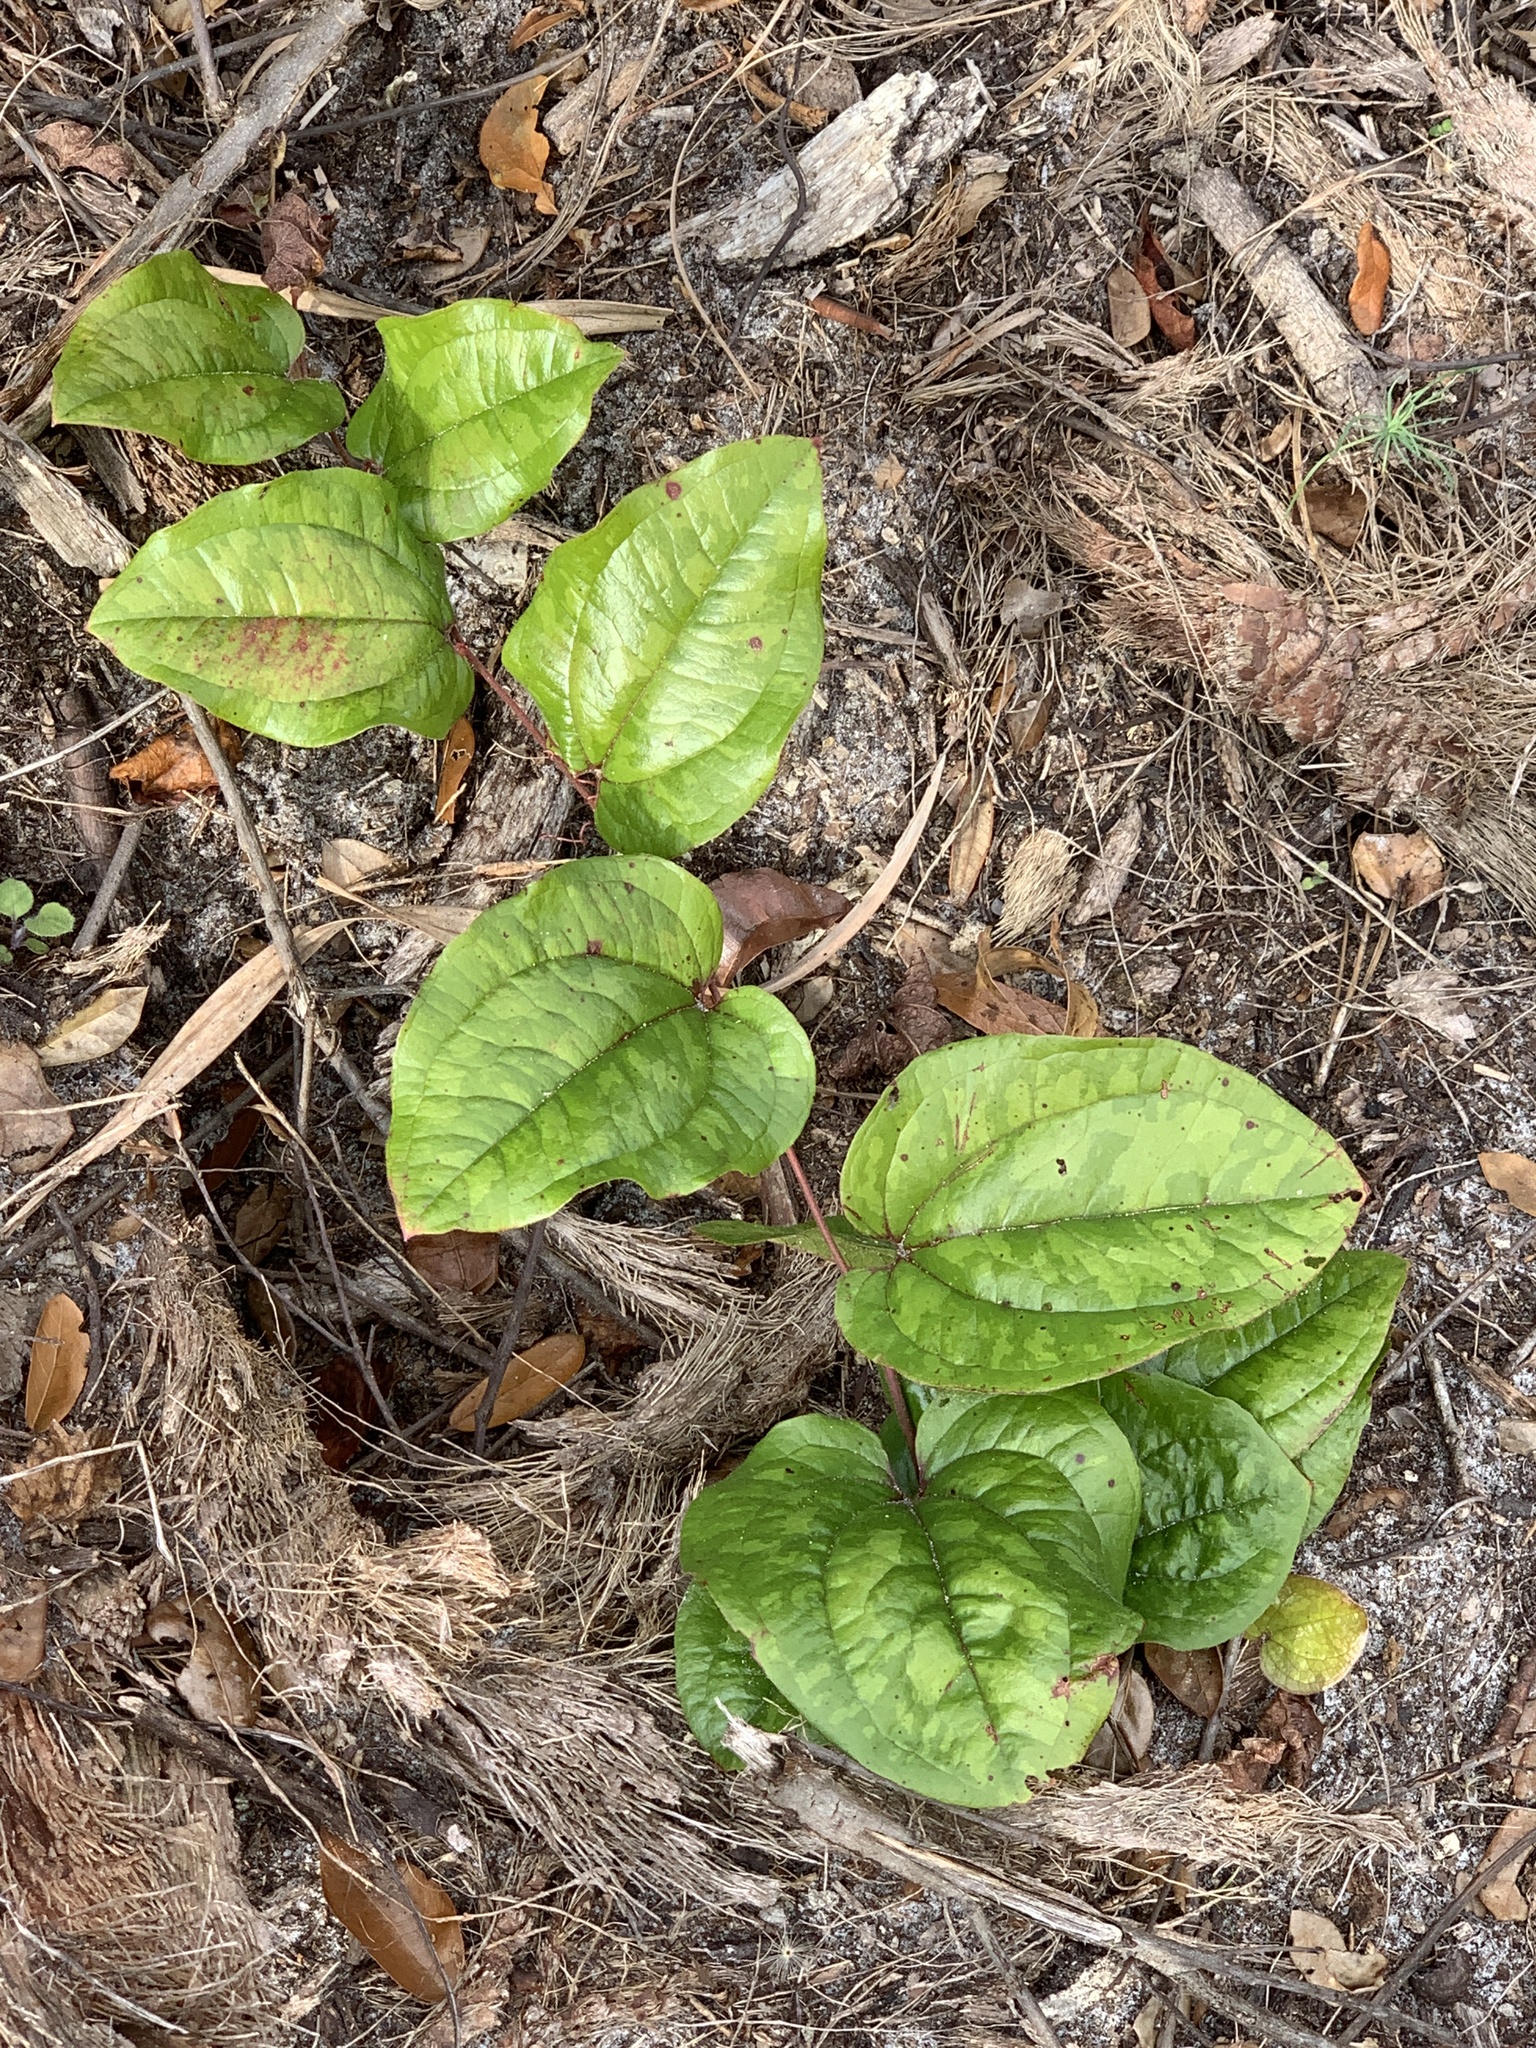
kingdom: Plantae
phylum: Tracheophyta
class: Liliopsida
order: Liliales
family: Smilacaceae
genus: Smilax
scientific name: Smilax pumila
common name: Sarsaparilla-vine
